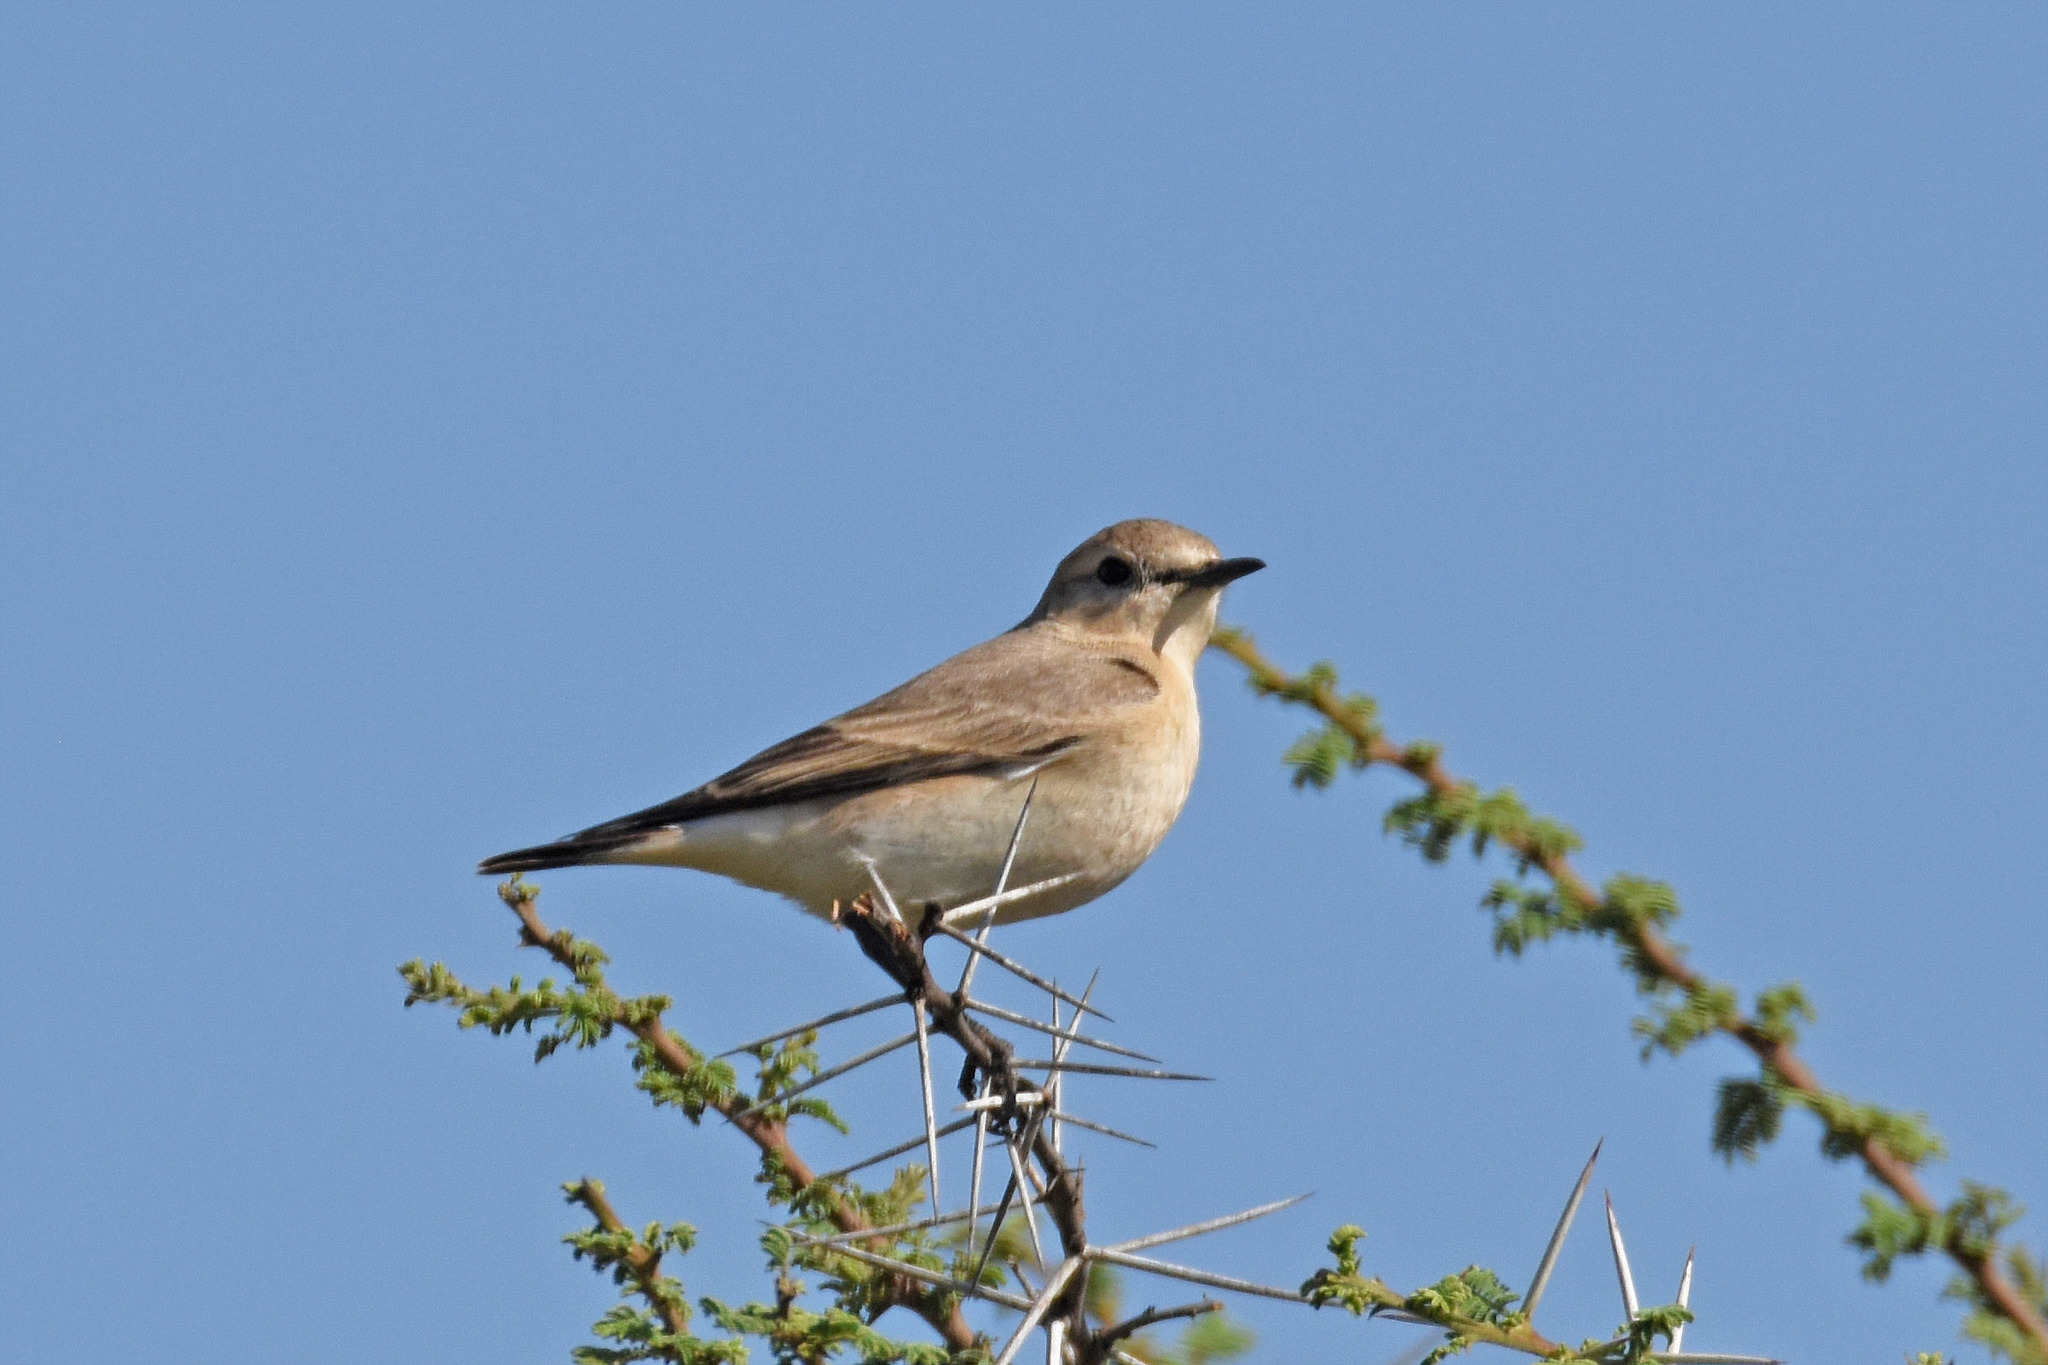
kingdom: Animalia
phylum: Chordata
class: Aves
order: Passeriformes
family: Muscicapidae
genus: Oenanthe
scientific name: Oenanthe isabellina
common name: Isabelline wheatear
